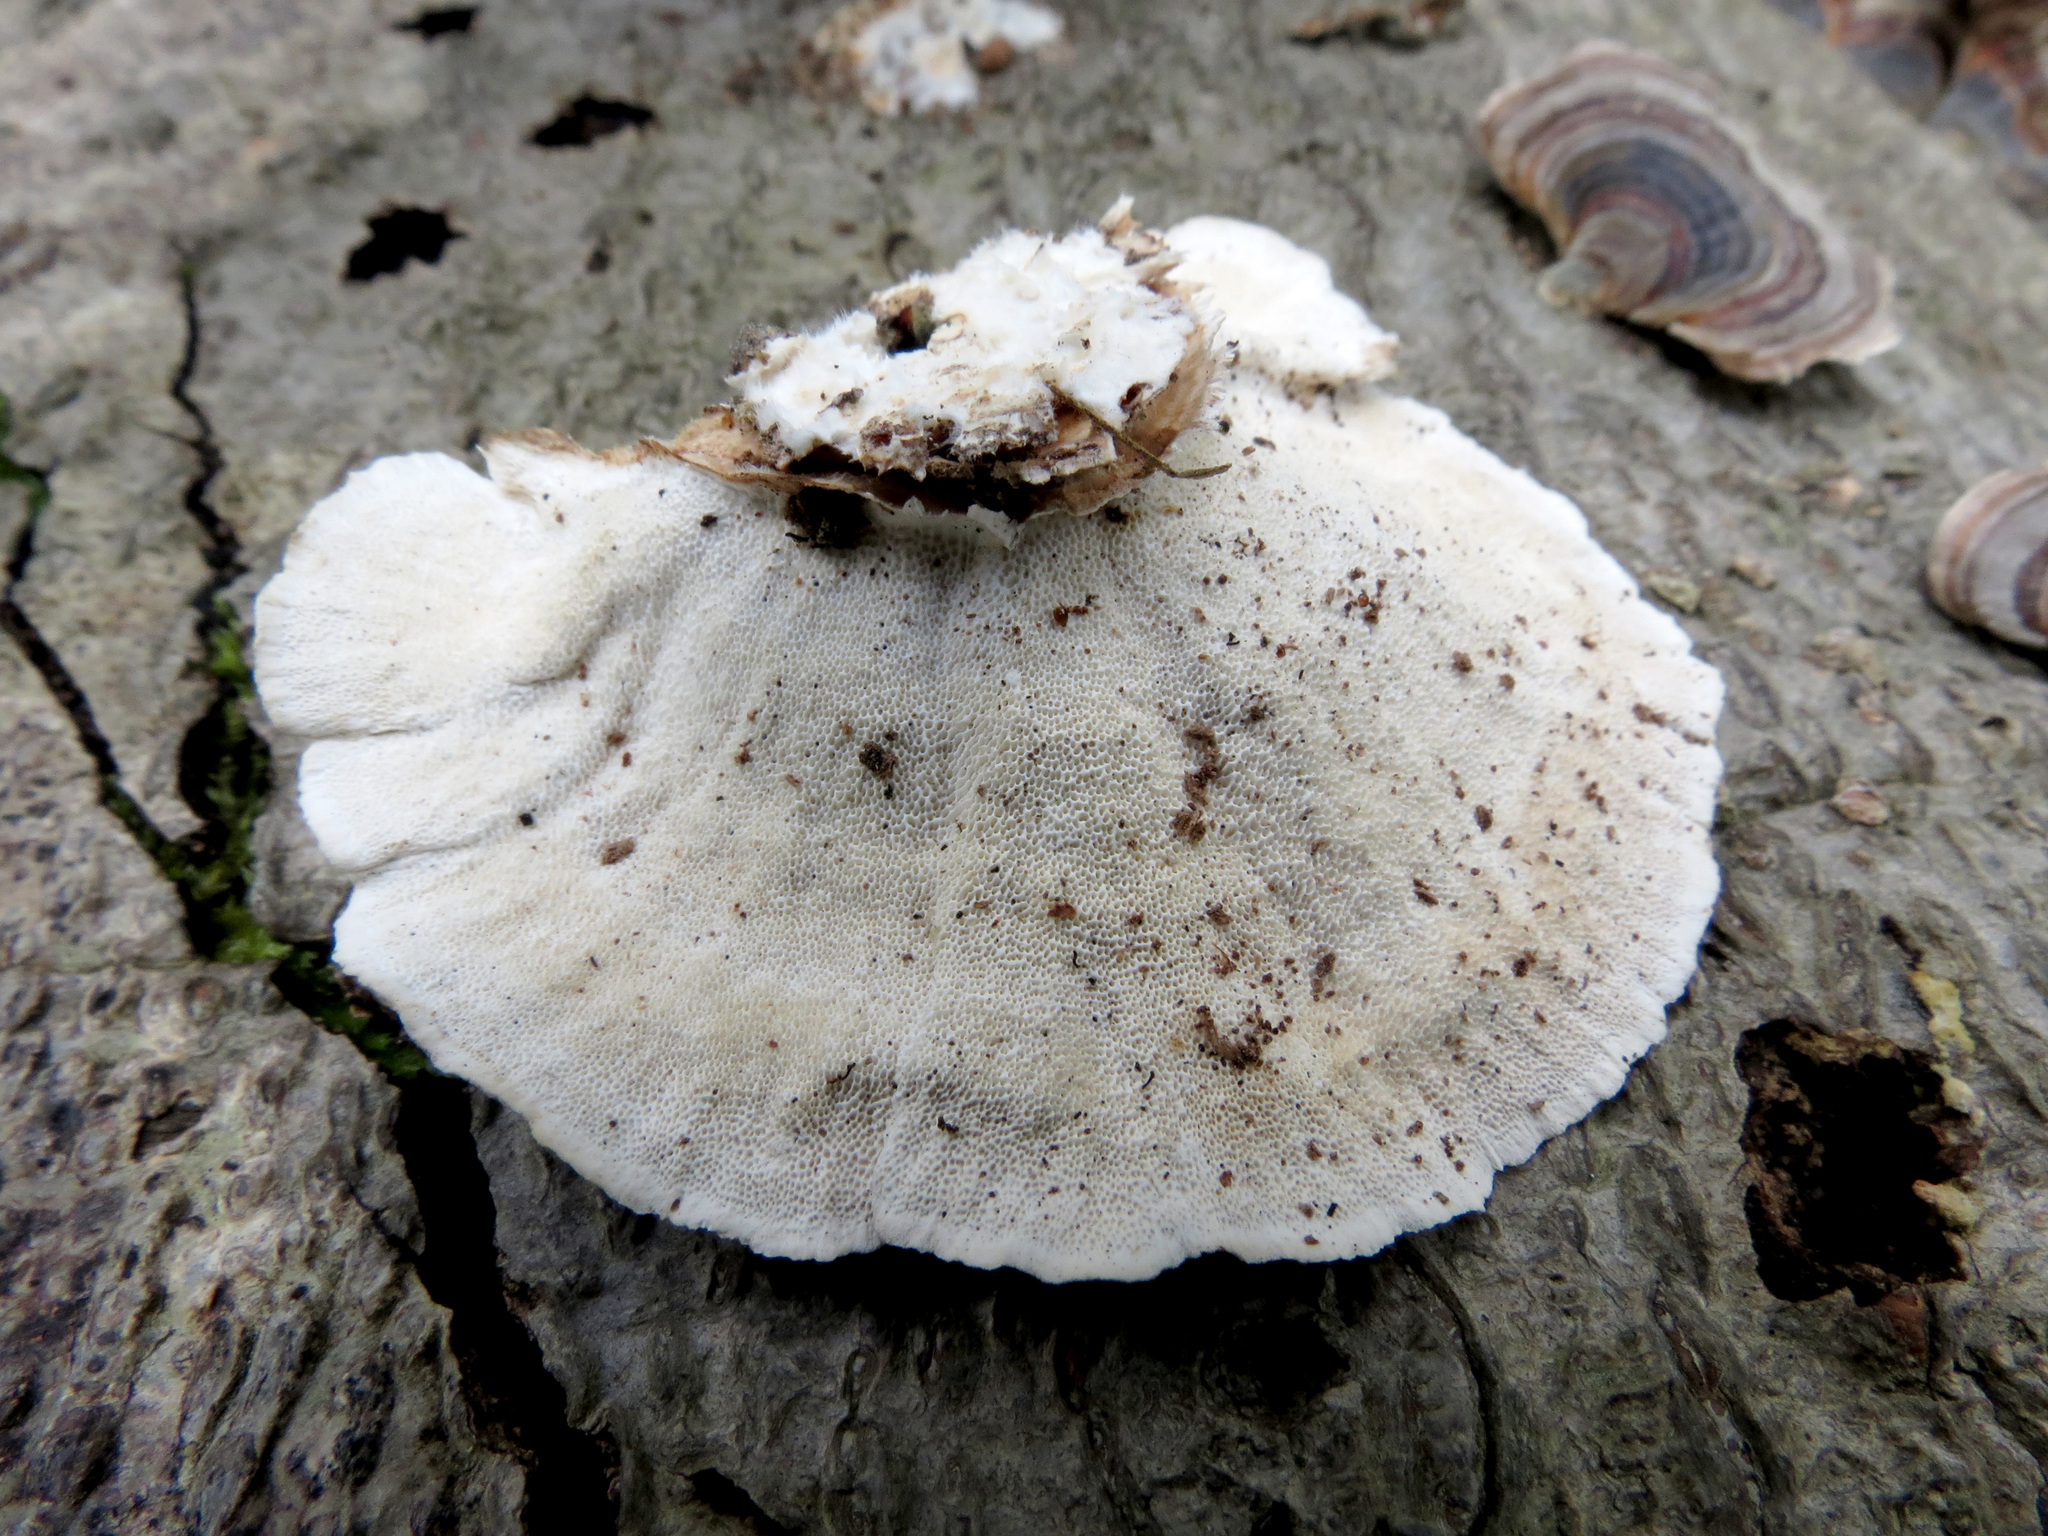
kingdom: Fungi
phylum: Basidiomycota
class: Agaricomycetes
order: Polyporales
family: Polyporaceae
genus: Trametes
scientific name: Trametes versicolor
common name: Turkeytail
